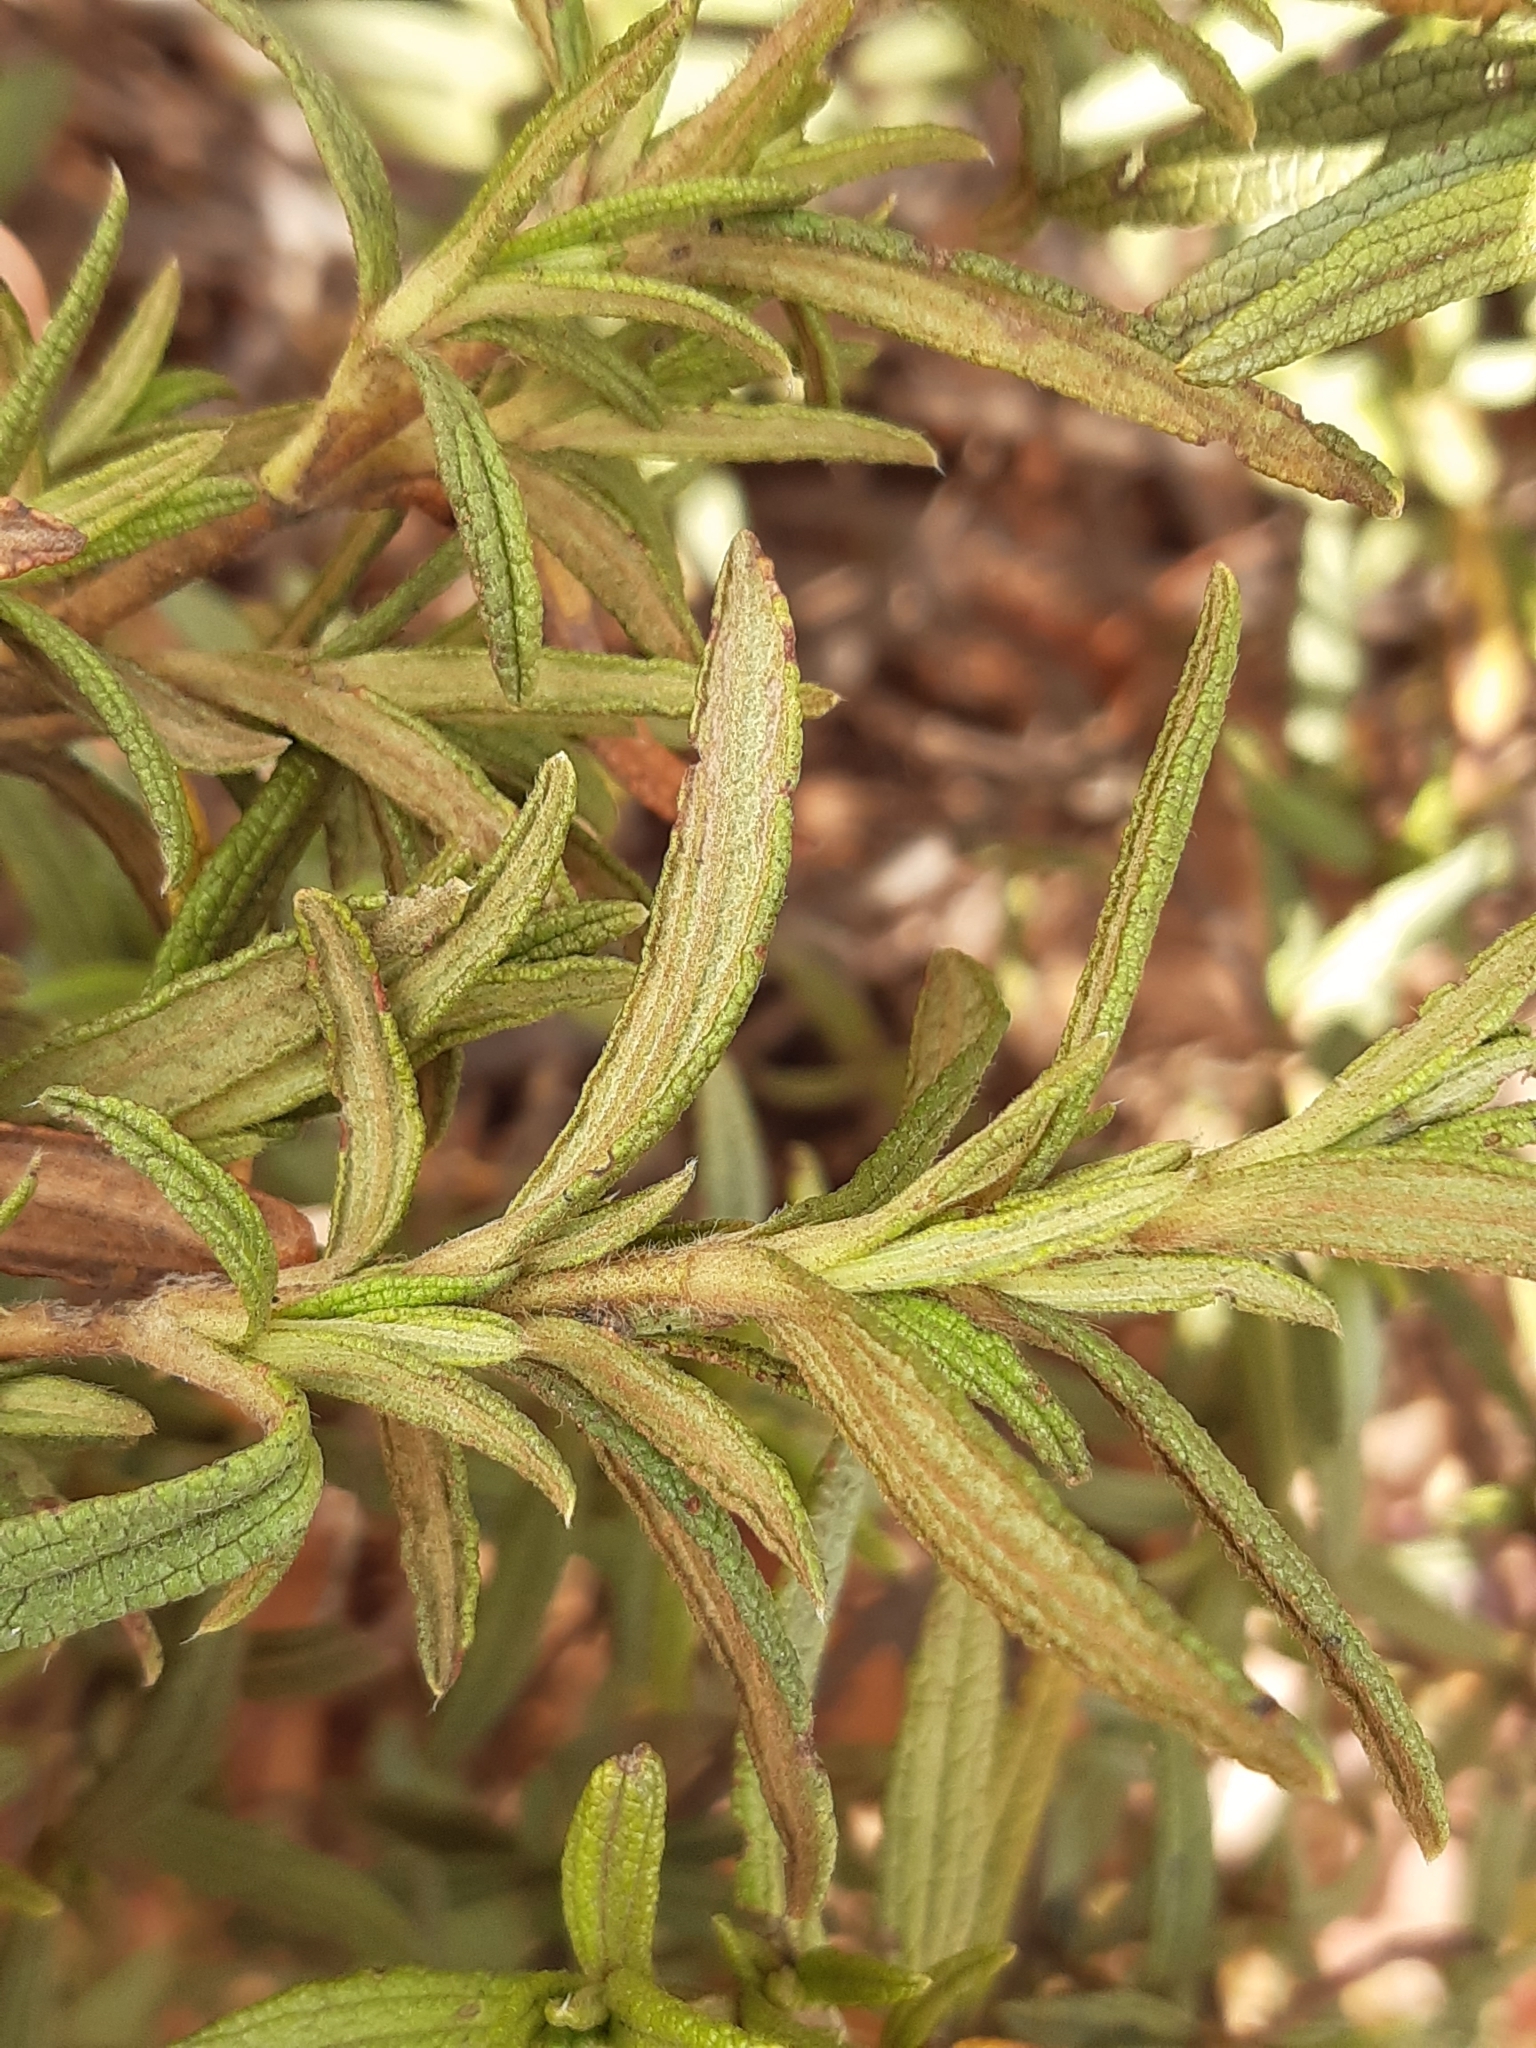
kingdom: Plantae
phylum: Tracheophyta
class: Magnoliopsida
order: Malvales
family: Cistaceae
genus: Cistus
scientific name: Cistus monspeliensis
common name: Montpelier cistus
